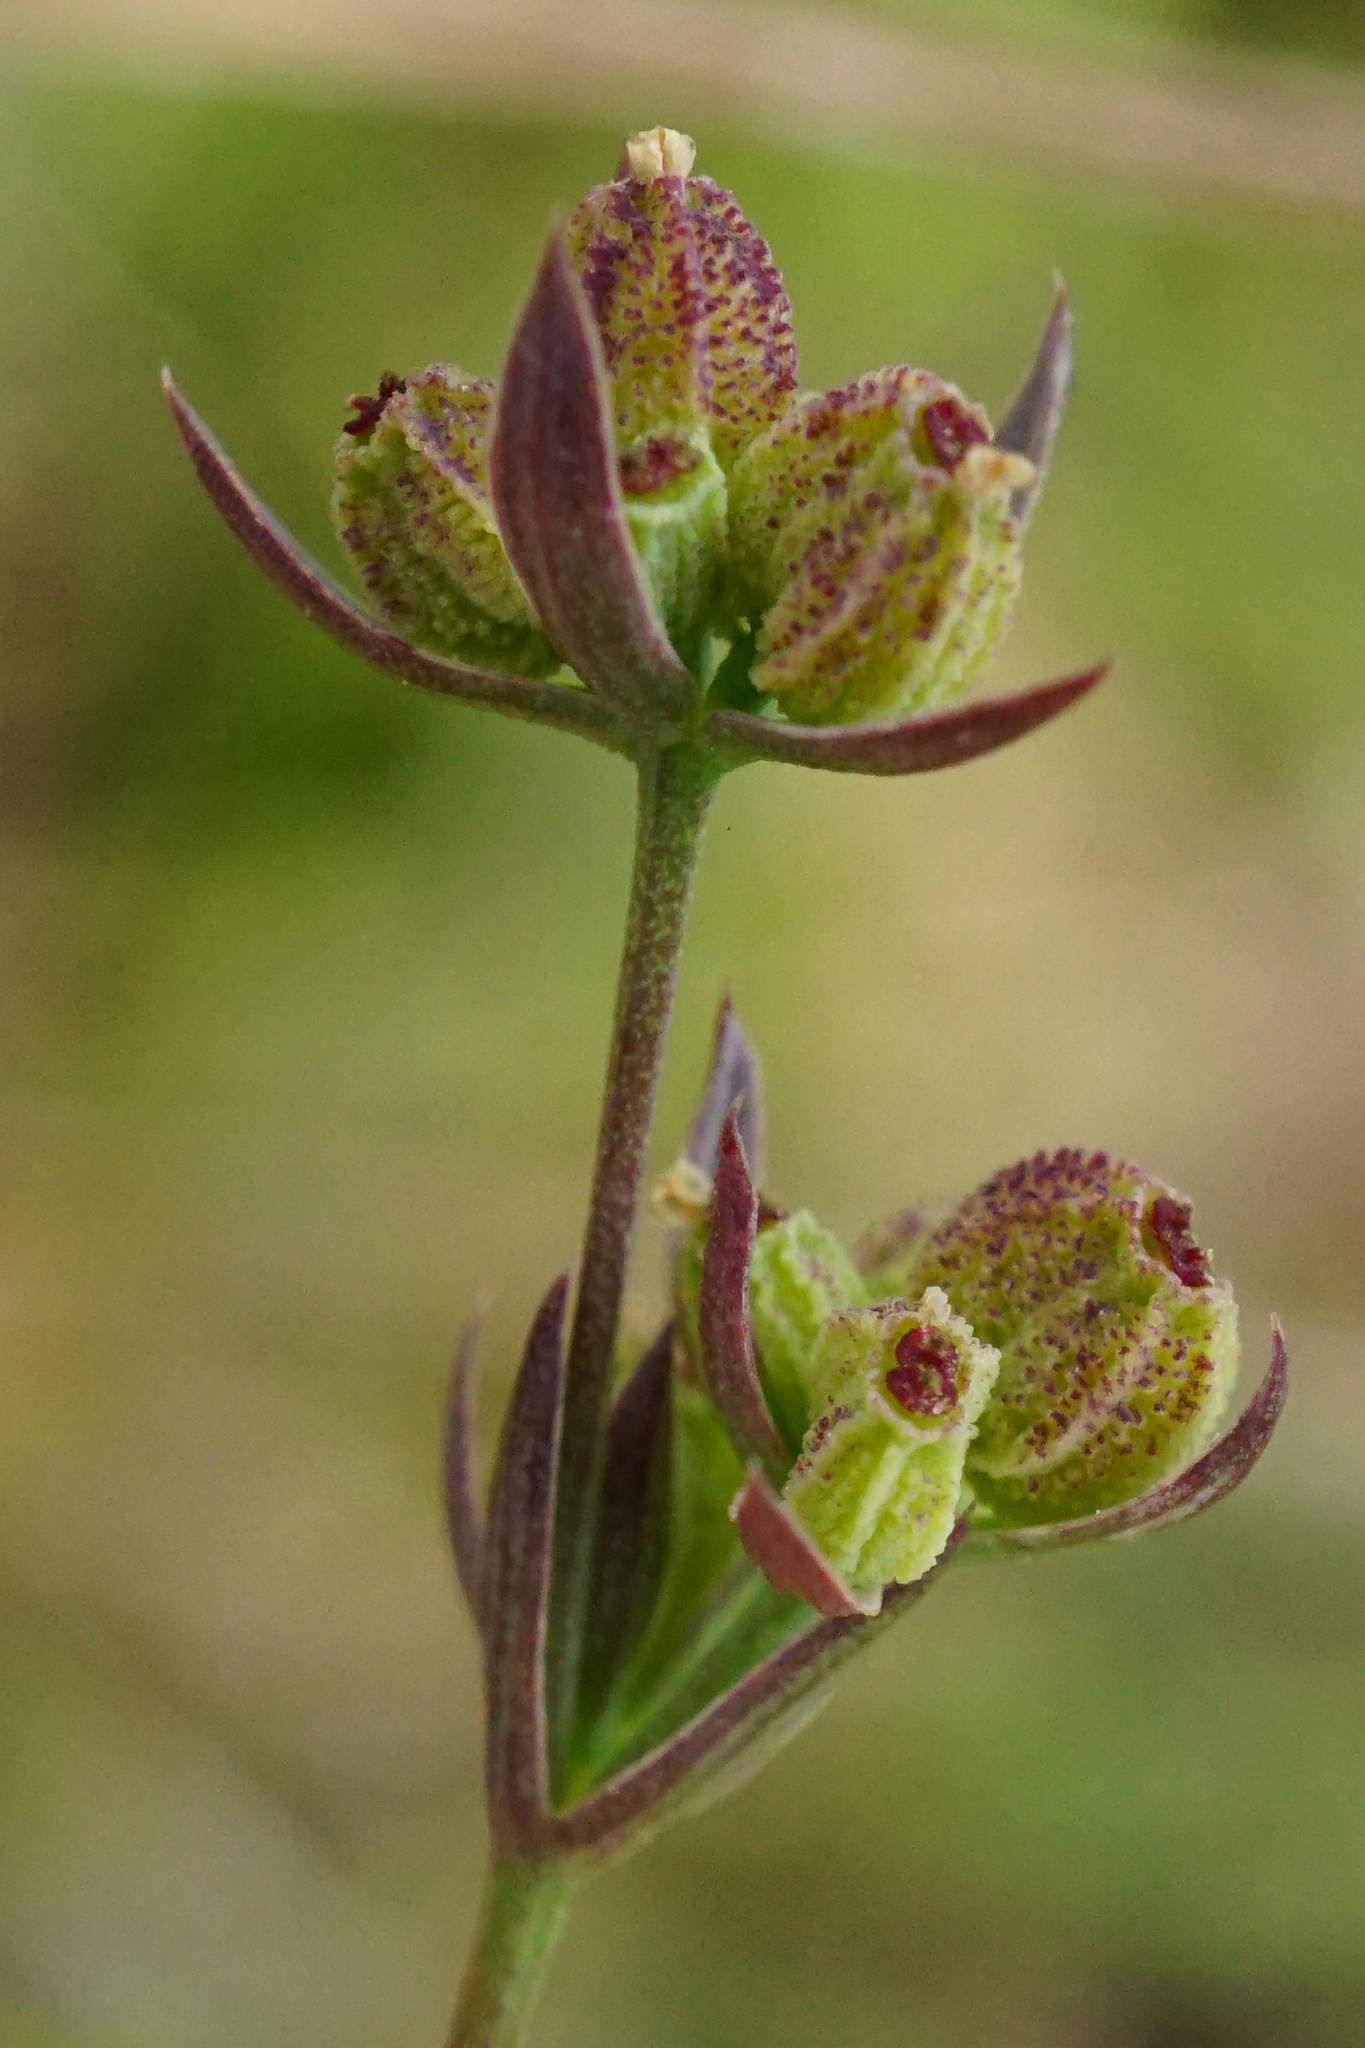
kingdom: Plantae
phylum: Tracheophyta
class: Magnoliopsida
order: Apiales
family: Apiaceae
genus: Bupleurum
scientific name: Bupleurum tenuissimum
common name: Slender hare's-ear
